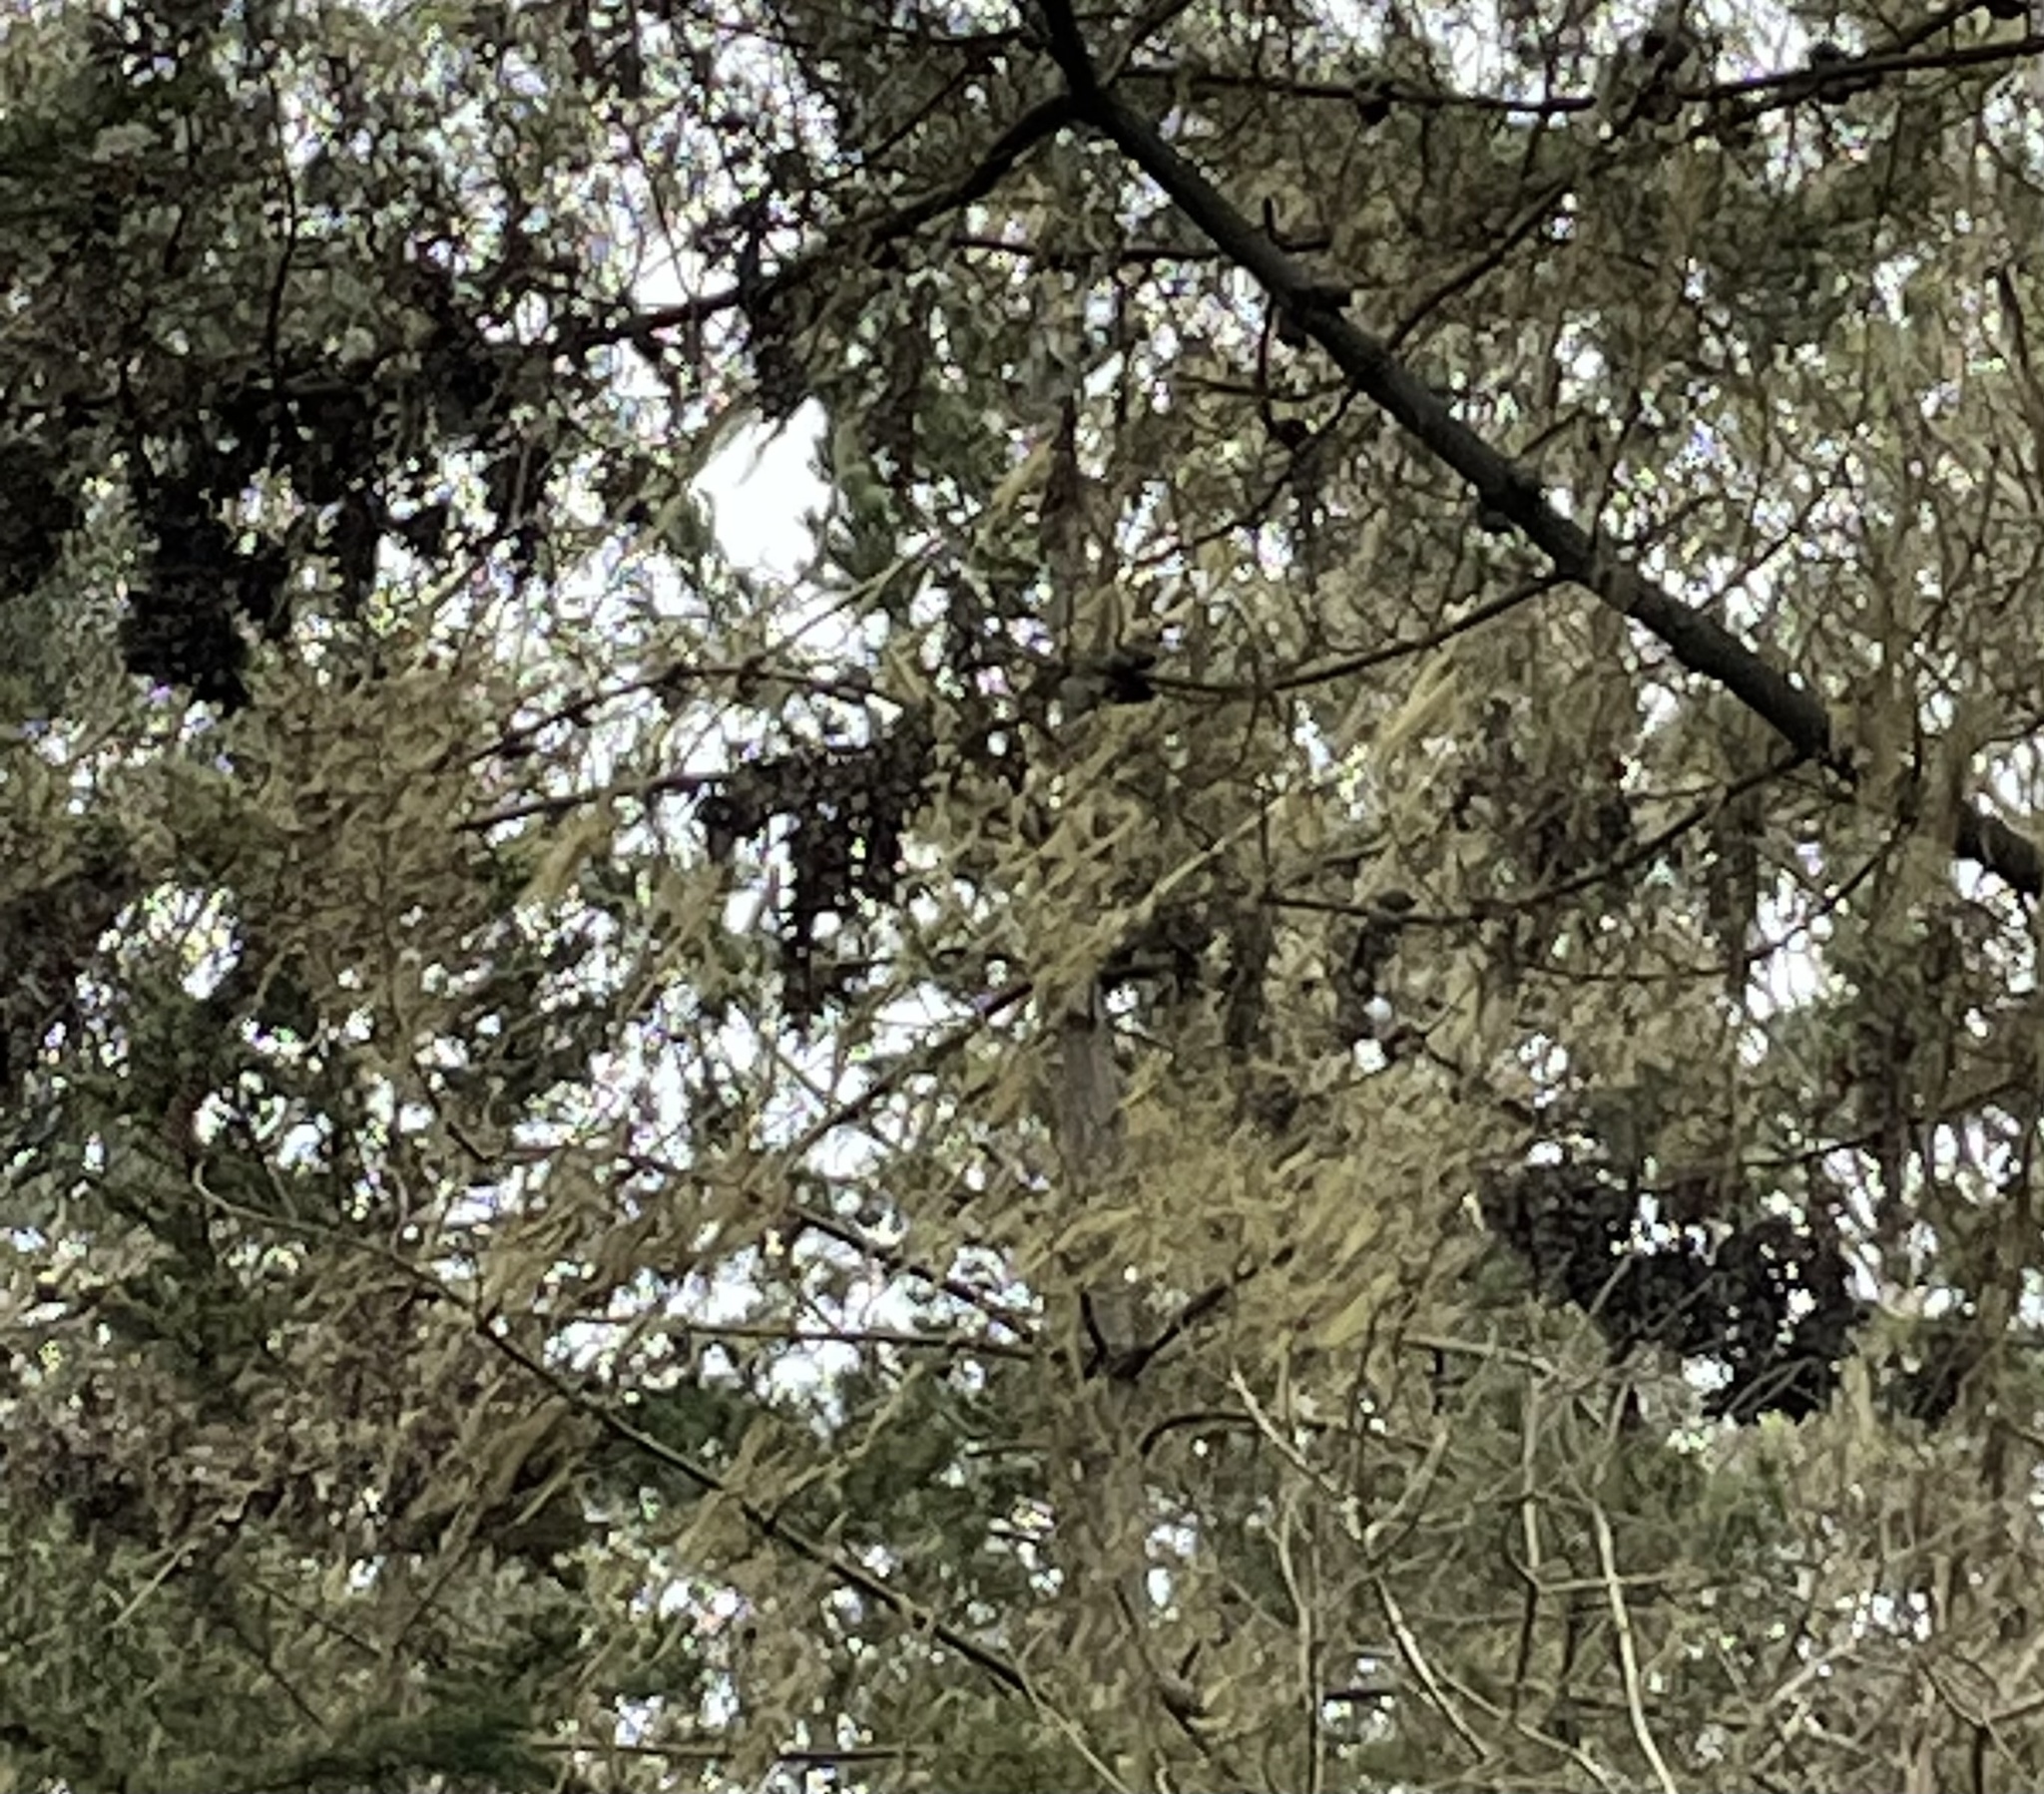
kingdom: Animalia
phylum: Arthropoda
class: Insecta
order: Lepidoptera
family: Nymphalidae
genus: Danaus
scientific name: Danaus plexippus
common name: Monarch
